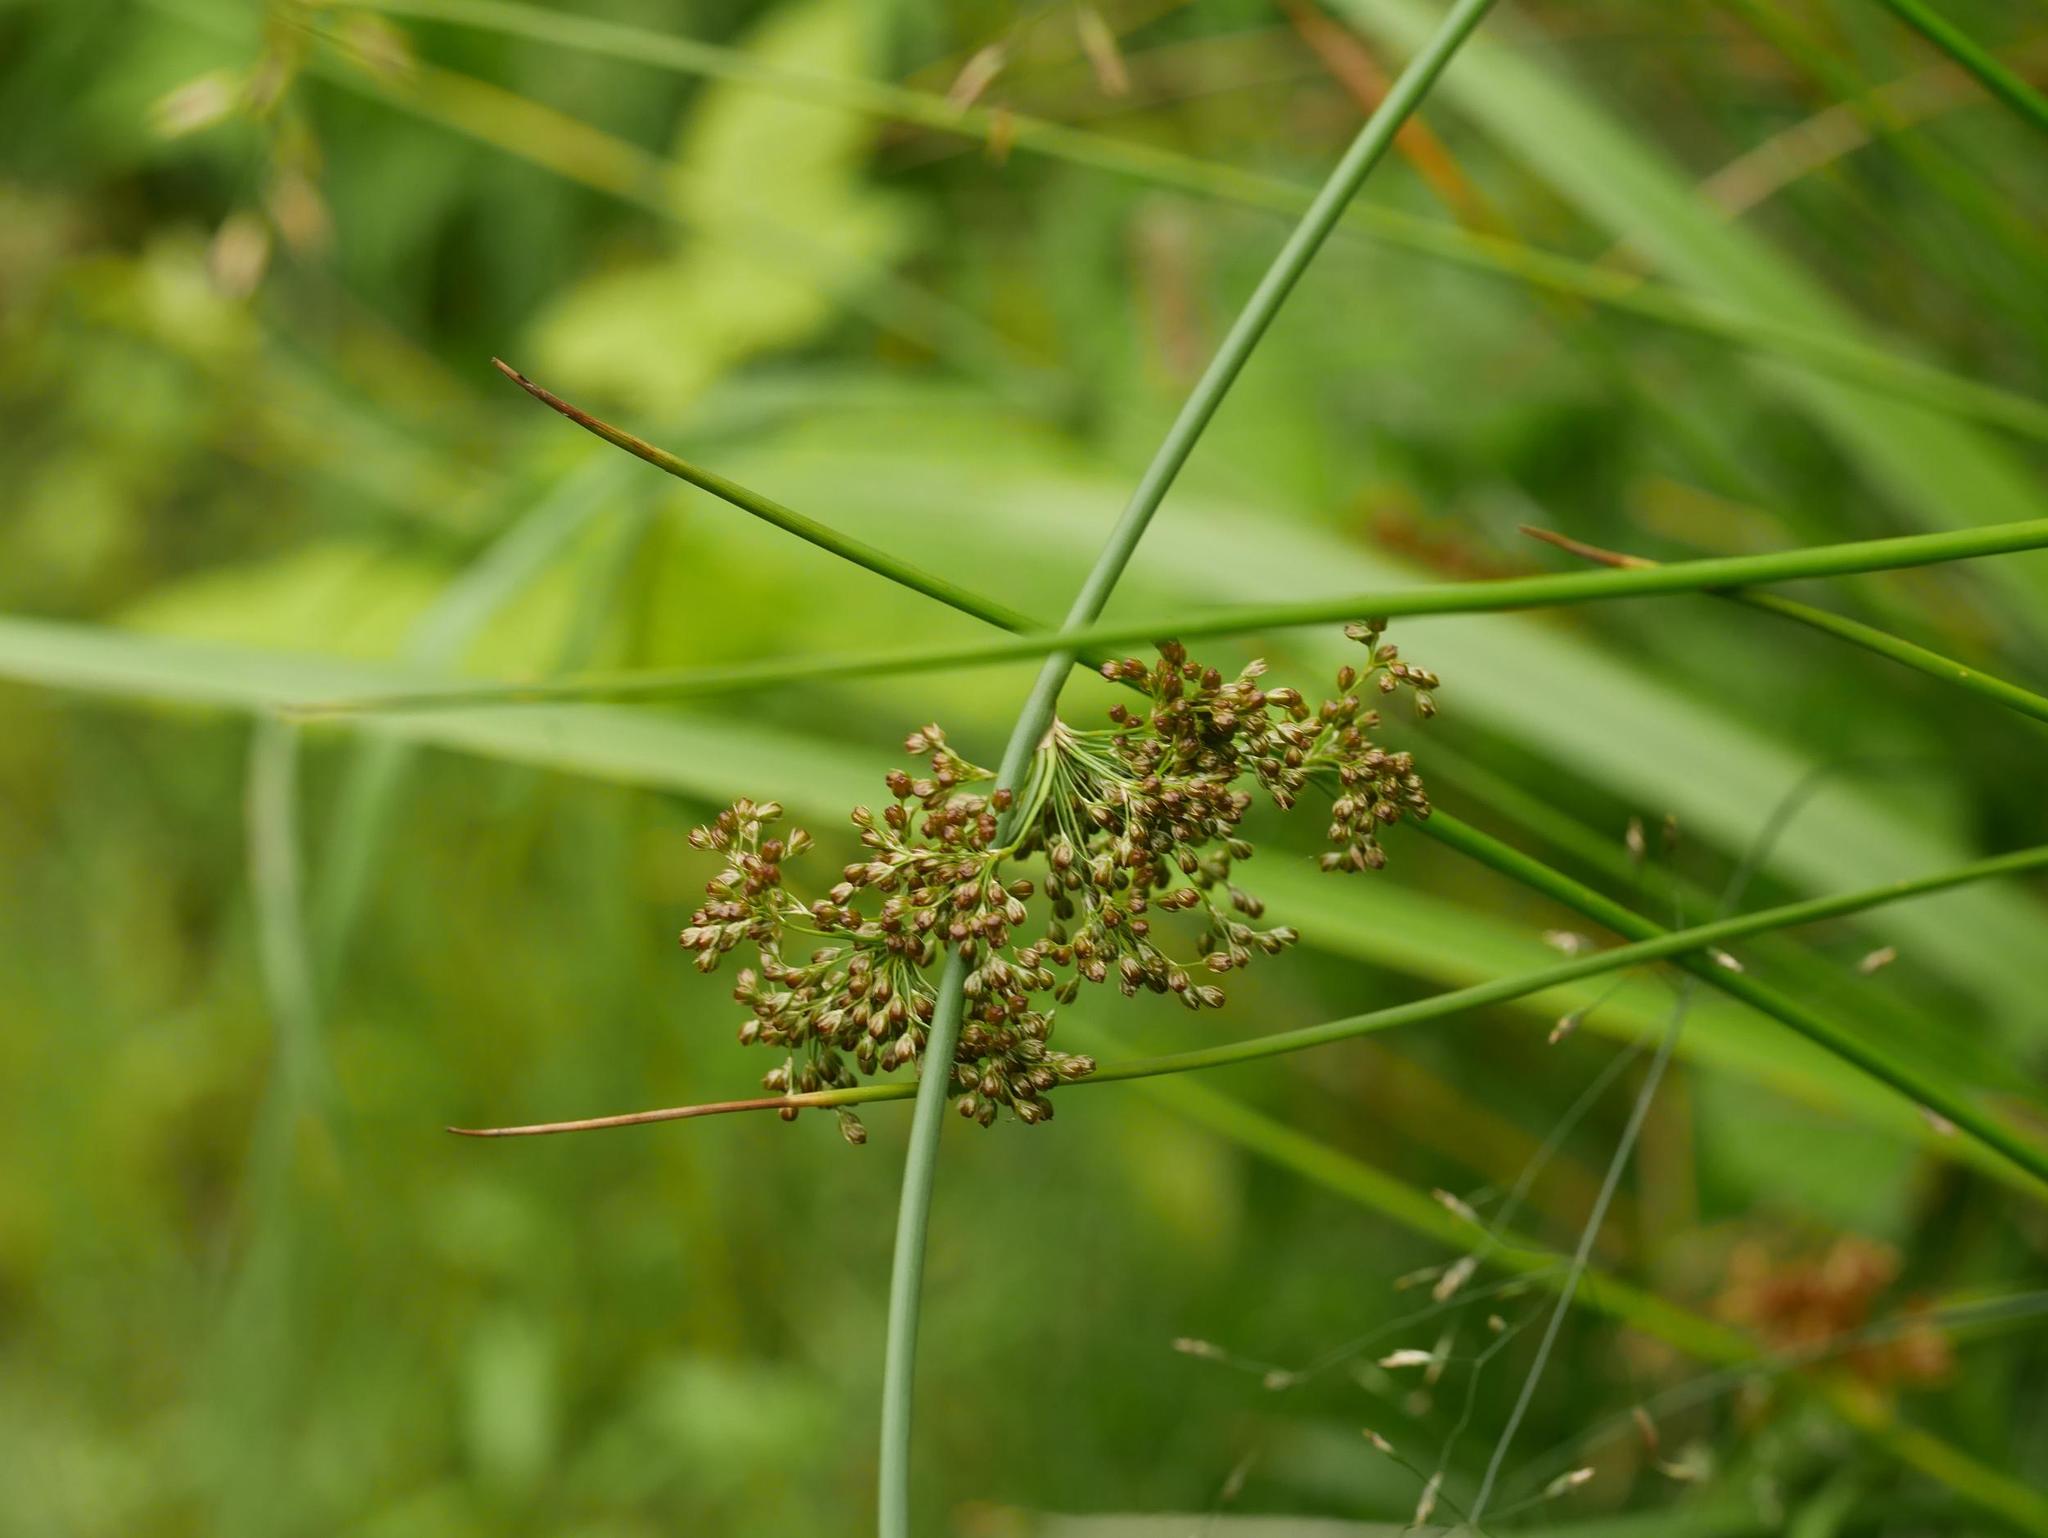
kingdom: Plantae
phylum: Tracheophyta
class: Liliopsida
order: Poales
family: Juncaceae
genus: Juncus
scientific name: Juncus effusus
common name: Soft rush
